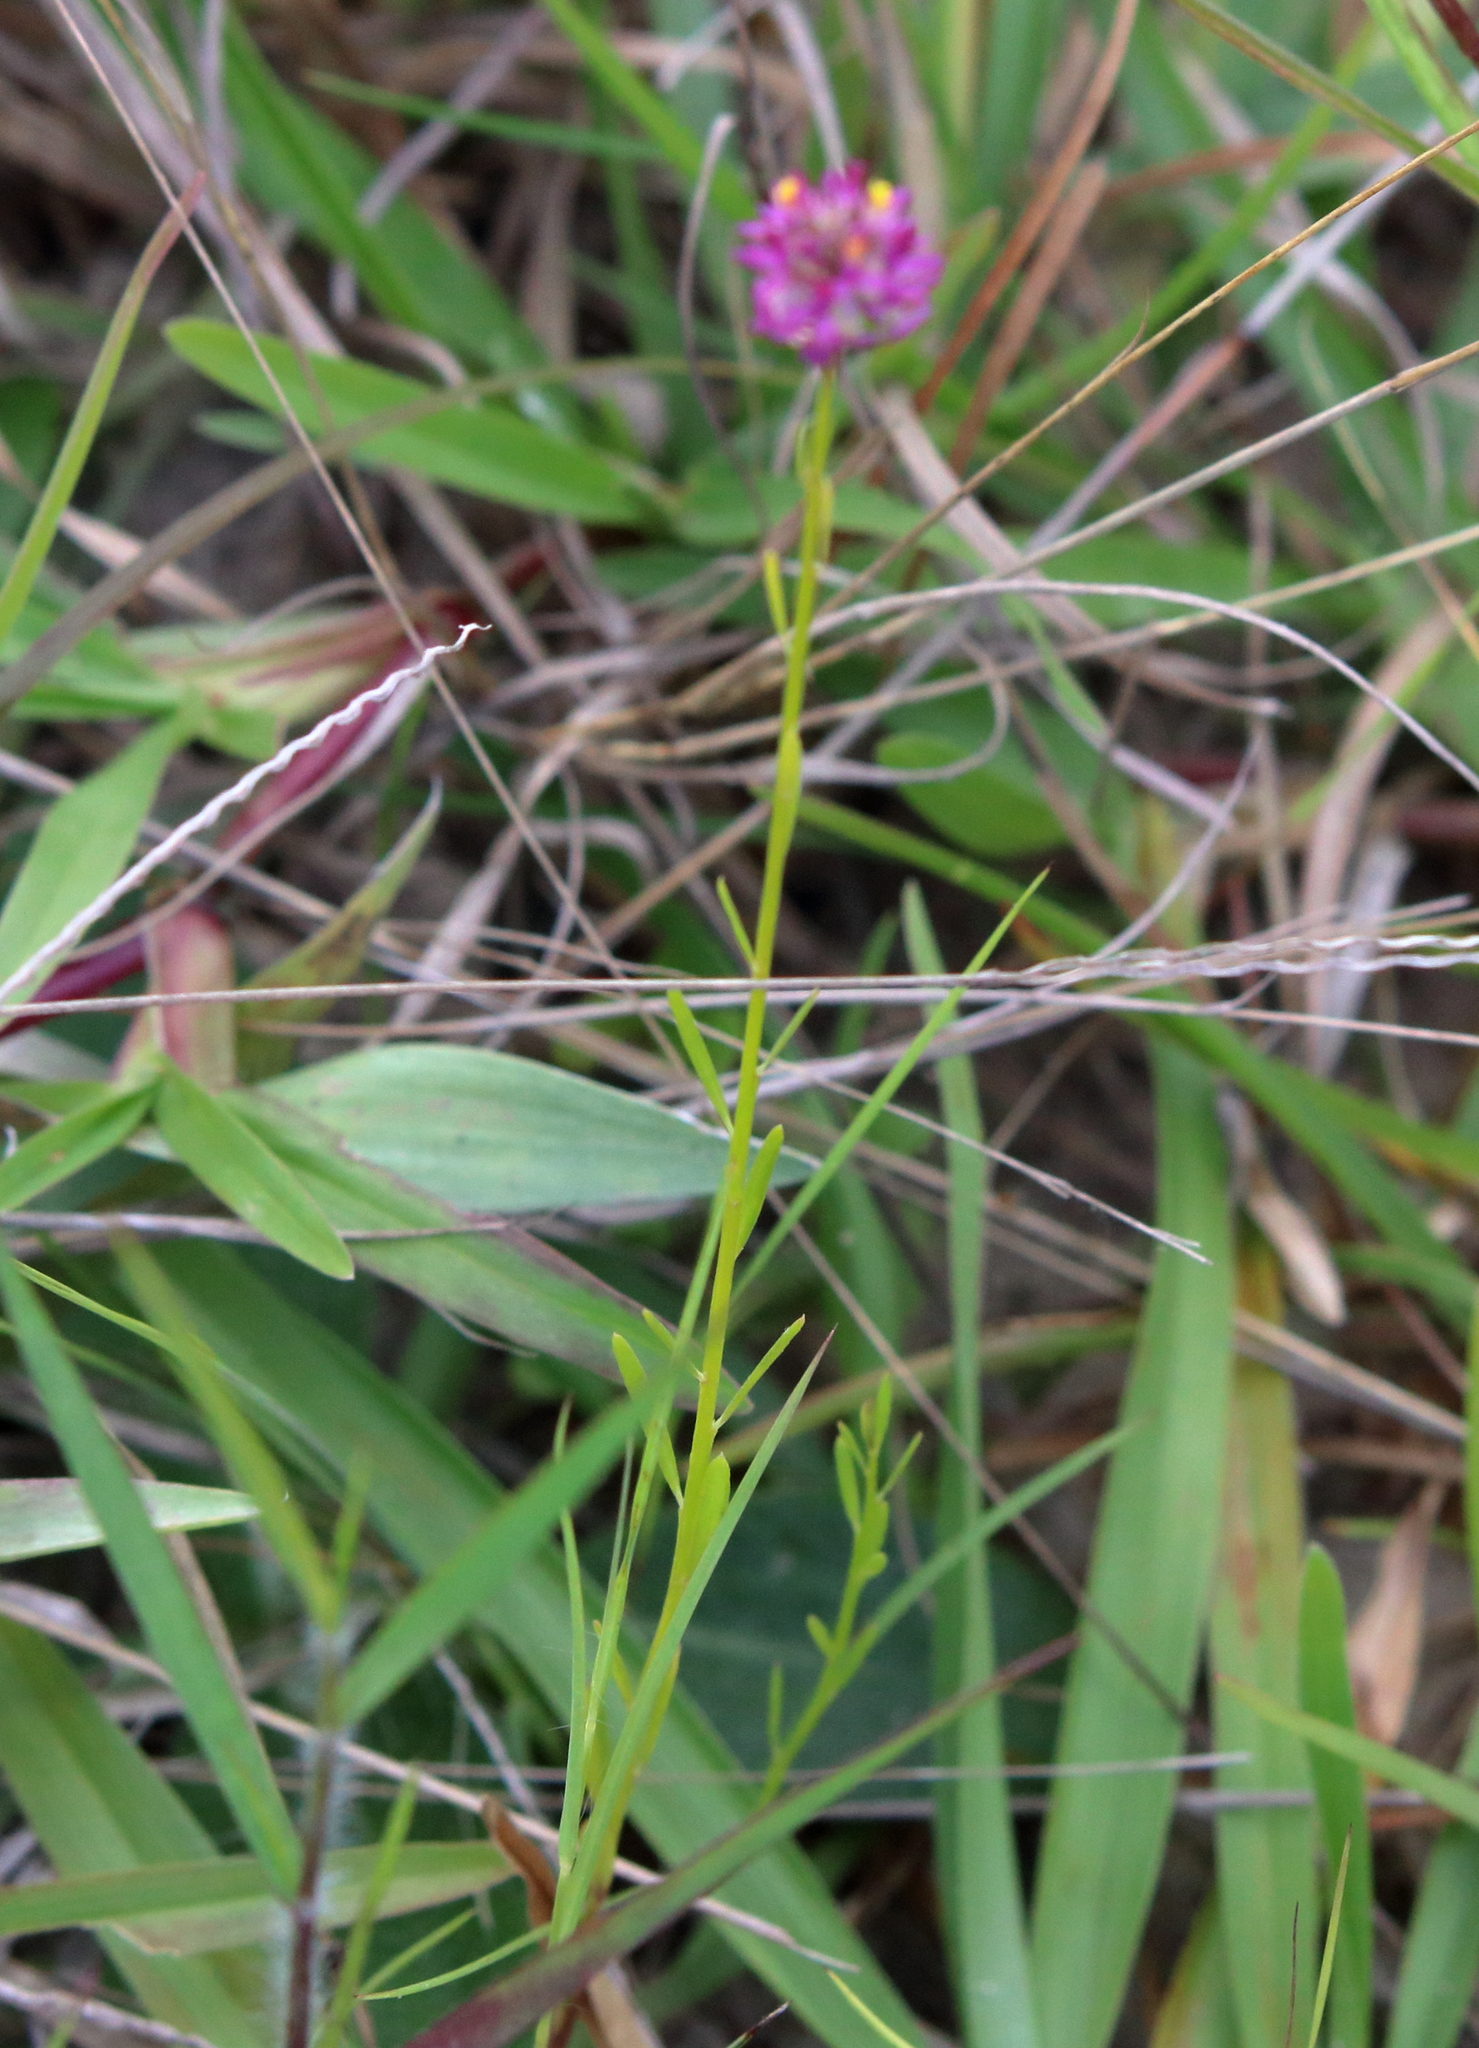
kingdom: Plantae
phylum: Tracheophyta
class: Magnoliopsida
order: Fabales
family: Polygalaceae
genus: Polygala
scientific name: Polygala mariana
